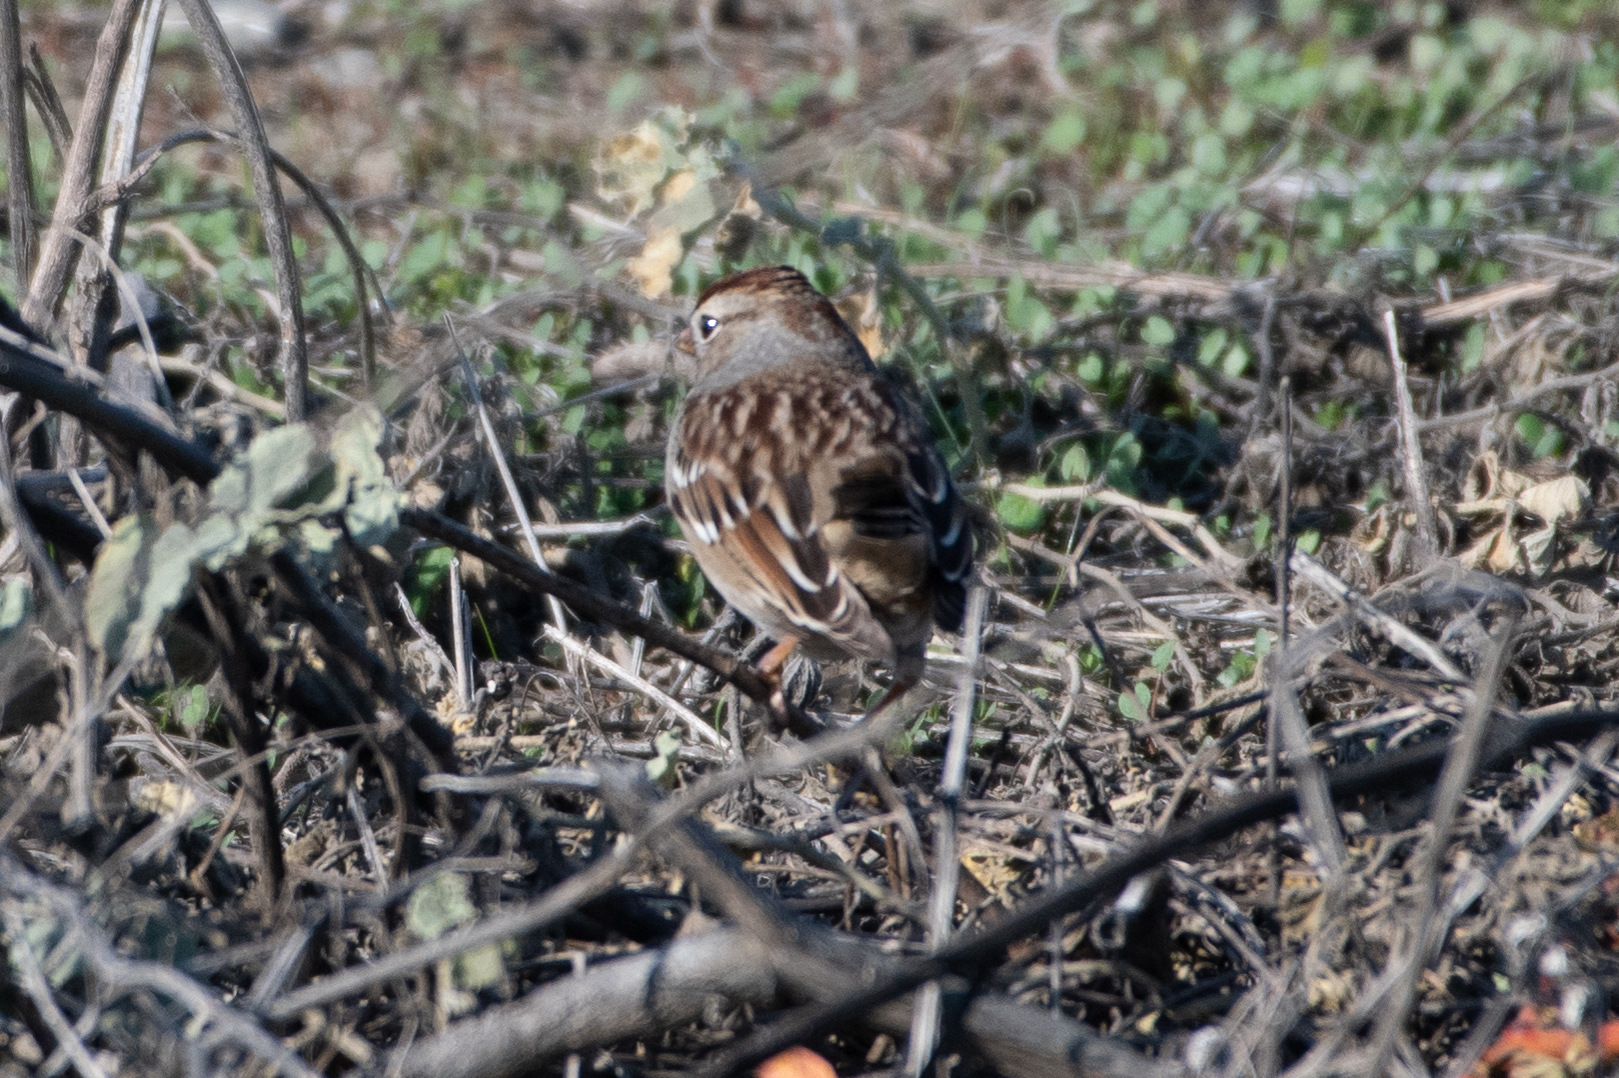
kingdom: Animalia
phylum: Chordata
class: Aves
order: Passeriformes
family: Passerellidae
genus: Zonotrichia
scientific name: Zonotrichia leucophrys
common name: White-crowned sparrow
